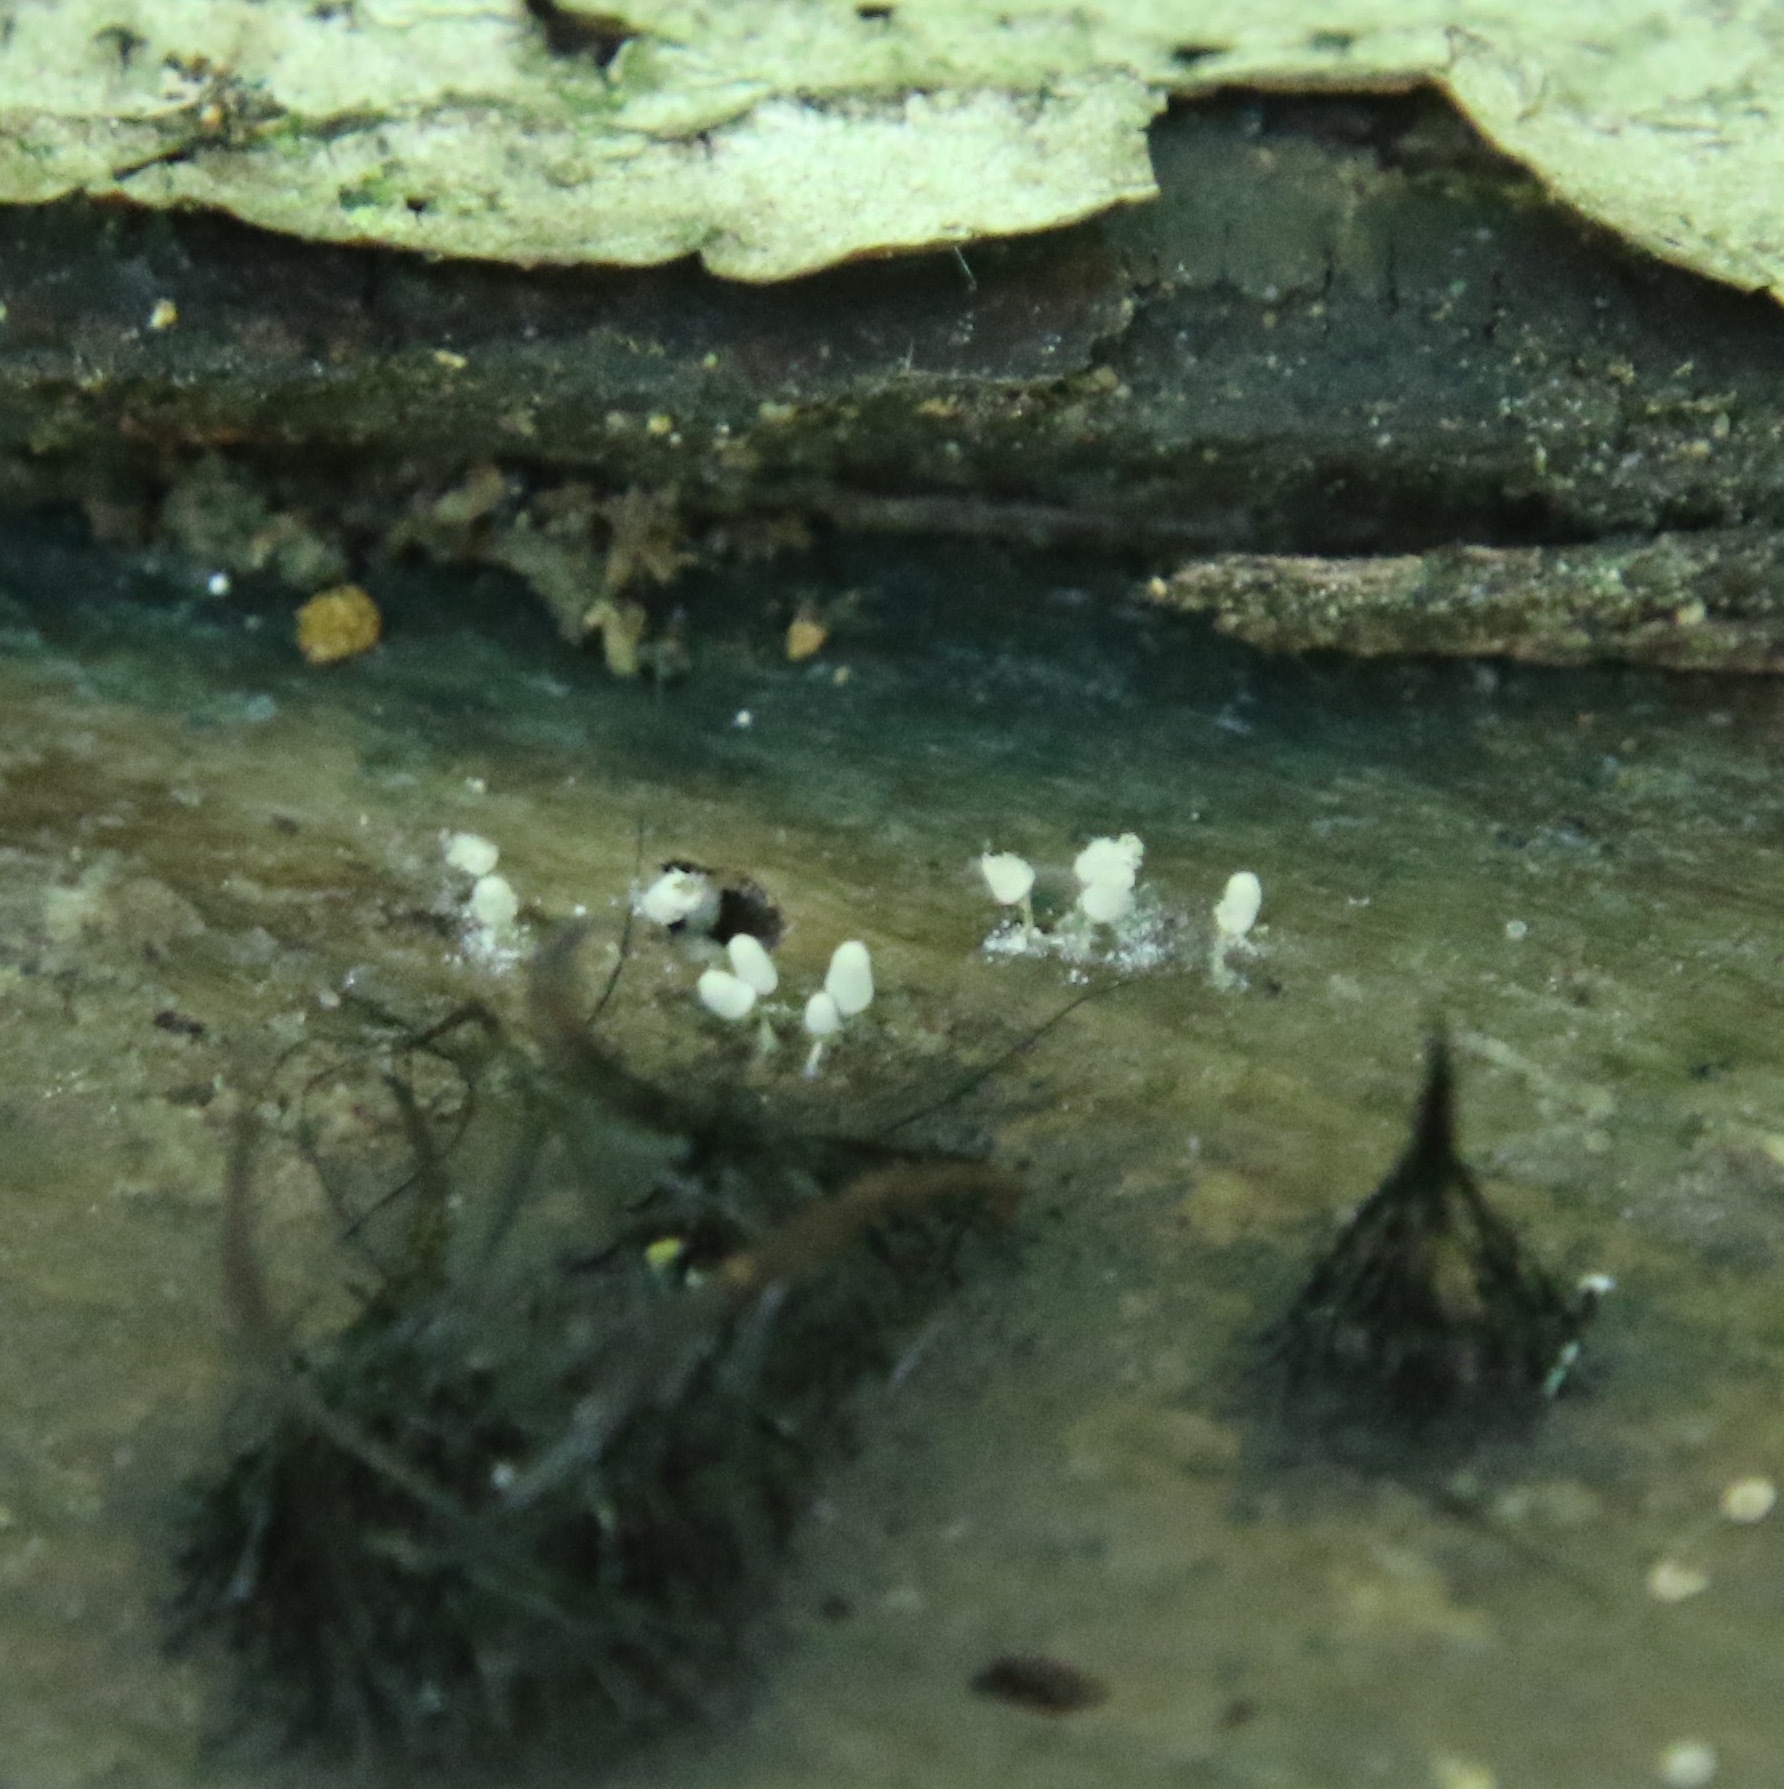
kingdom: Protozoa
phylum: Mycetozoa
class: Myxomycetes
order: Trichiales
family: Arcyriaceae
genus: Arcyria
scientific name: Arcyria cinerea
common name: White carnival candy slime mold
